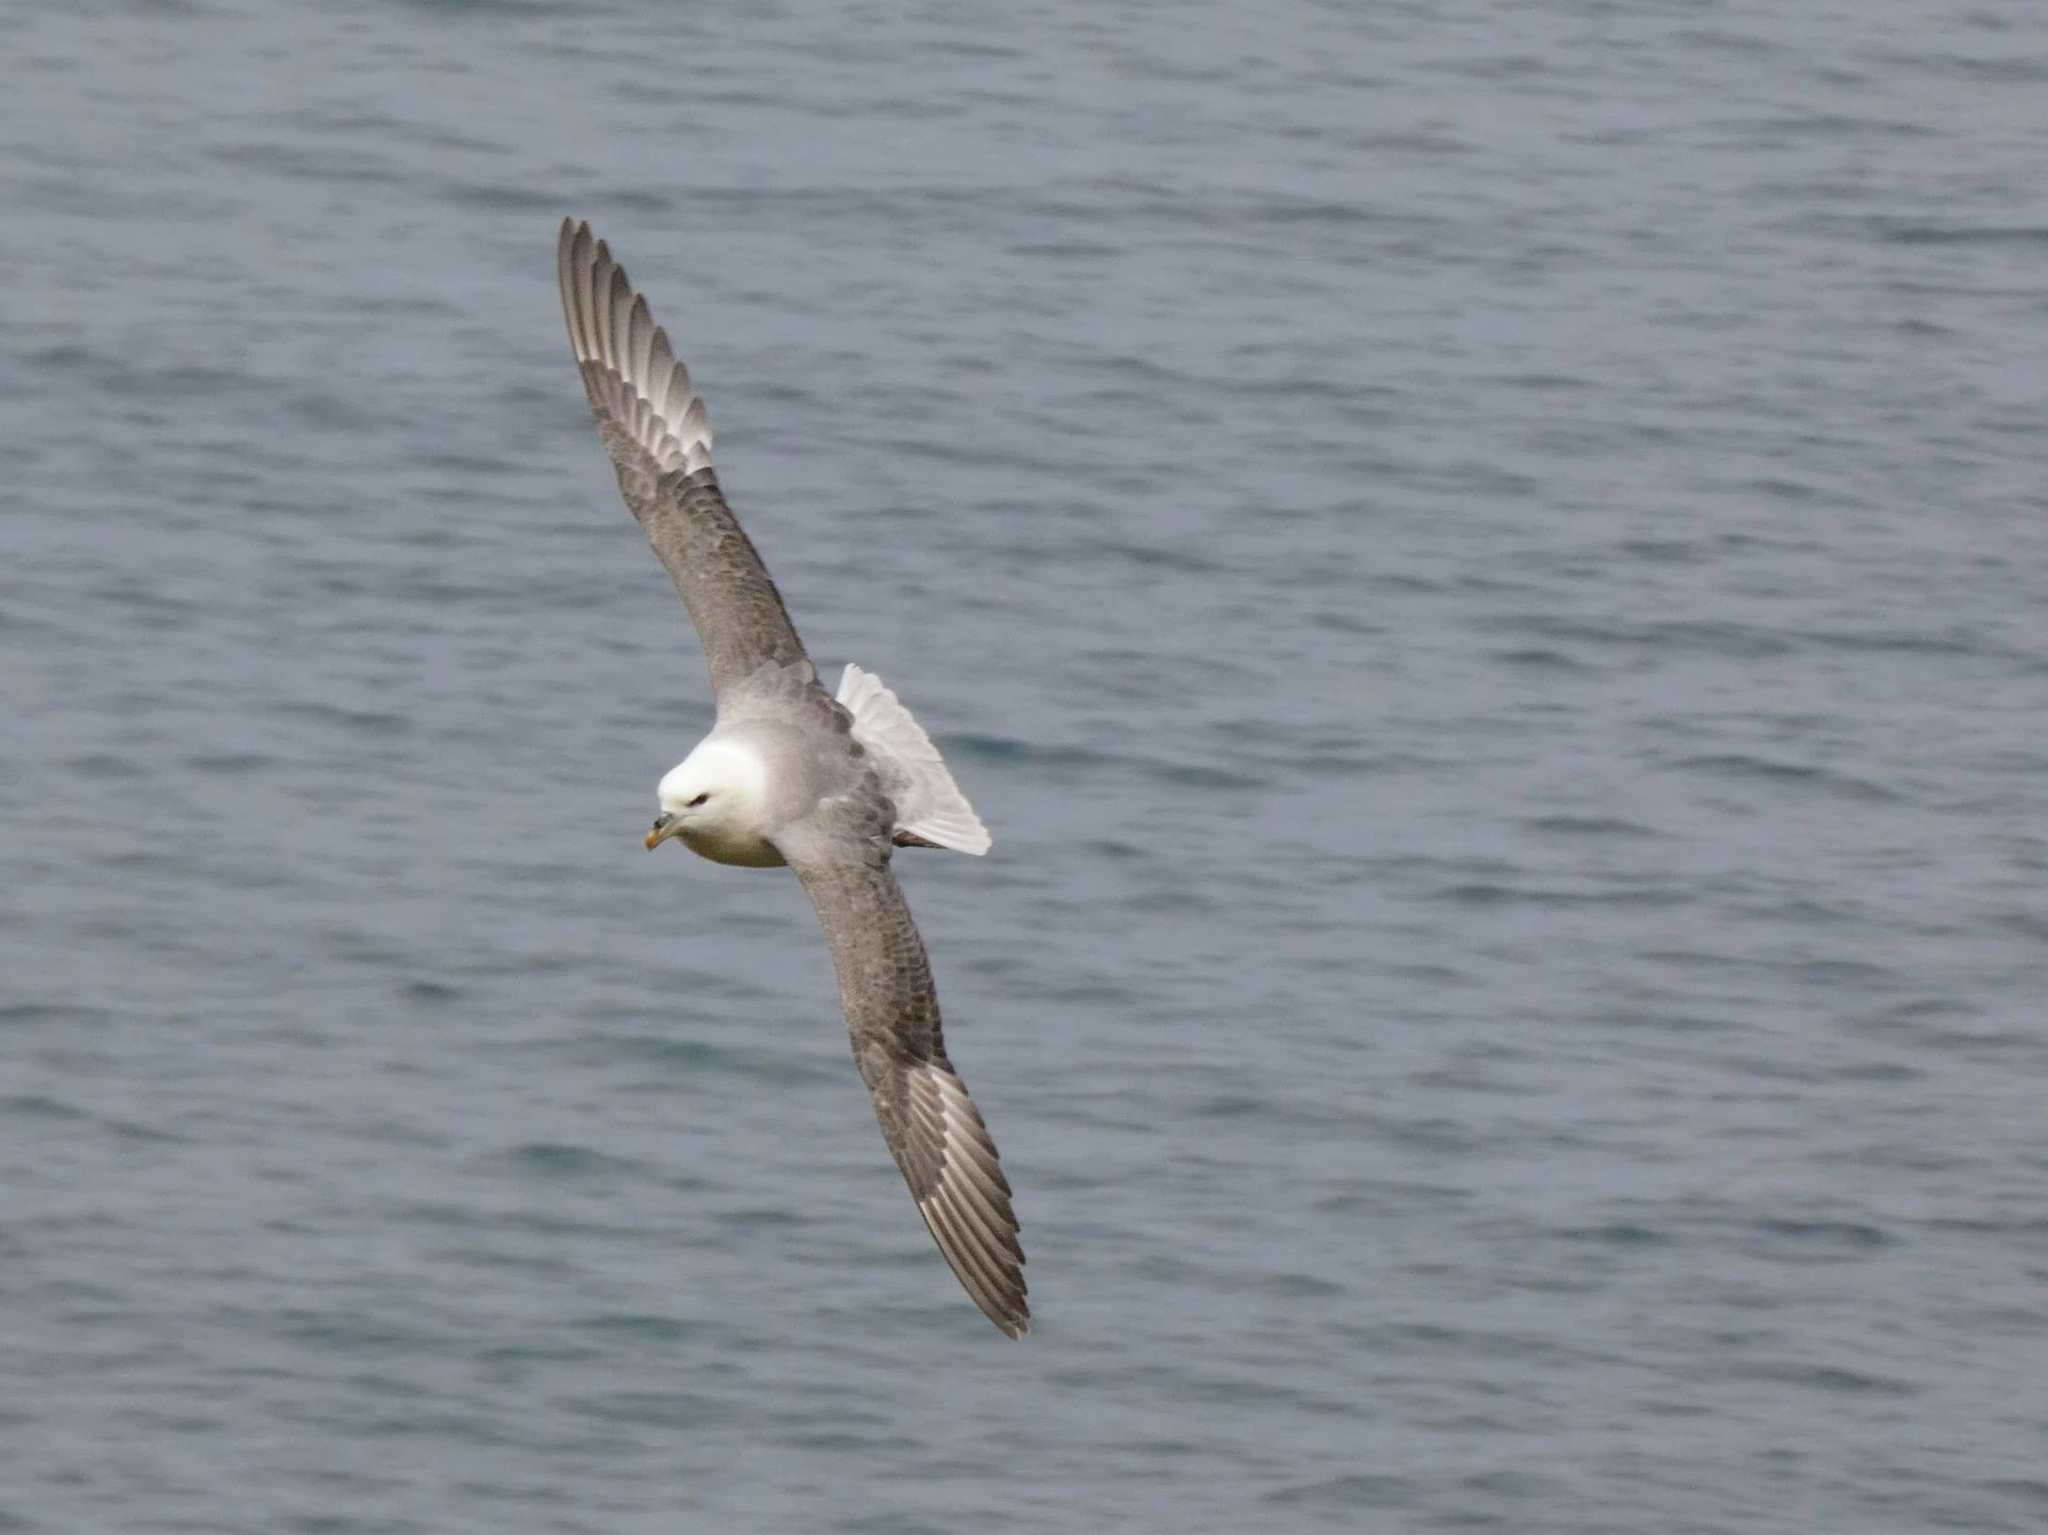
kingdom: Animalia
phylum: Chordata
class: Aves
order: Procellariiformes
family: Procellariidae
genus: Fulmarus
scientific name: Fulmarus glacialis
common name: Northern fulmar
